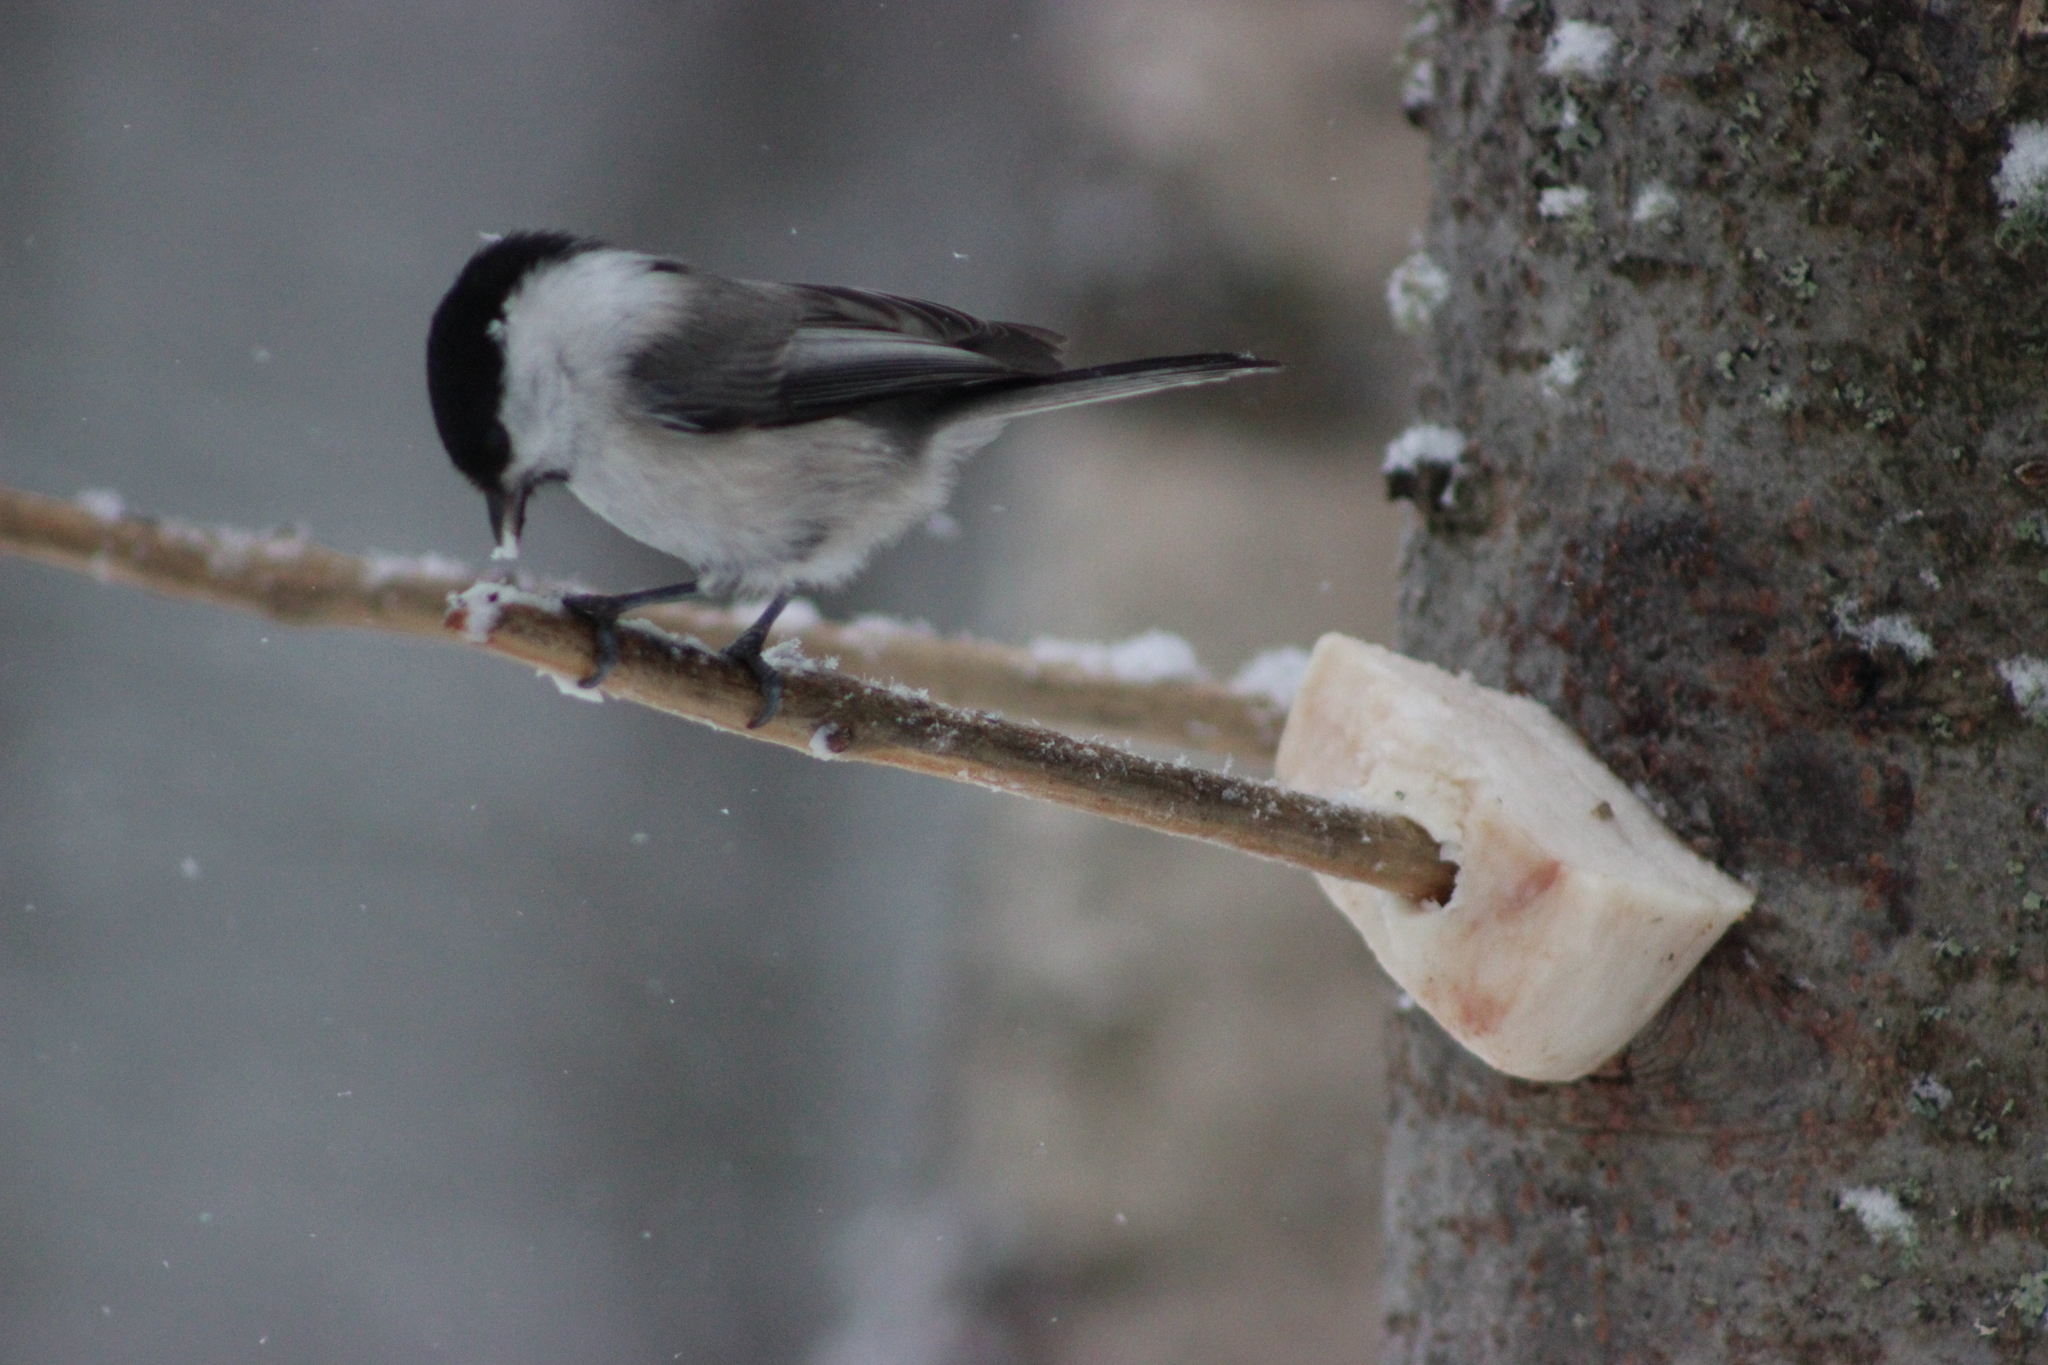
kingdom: Animalia
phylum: Chordata
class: Aves
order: Passeriformes
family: Paridae
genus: Poecile
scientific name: Poecile montanus
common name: Willow tit
